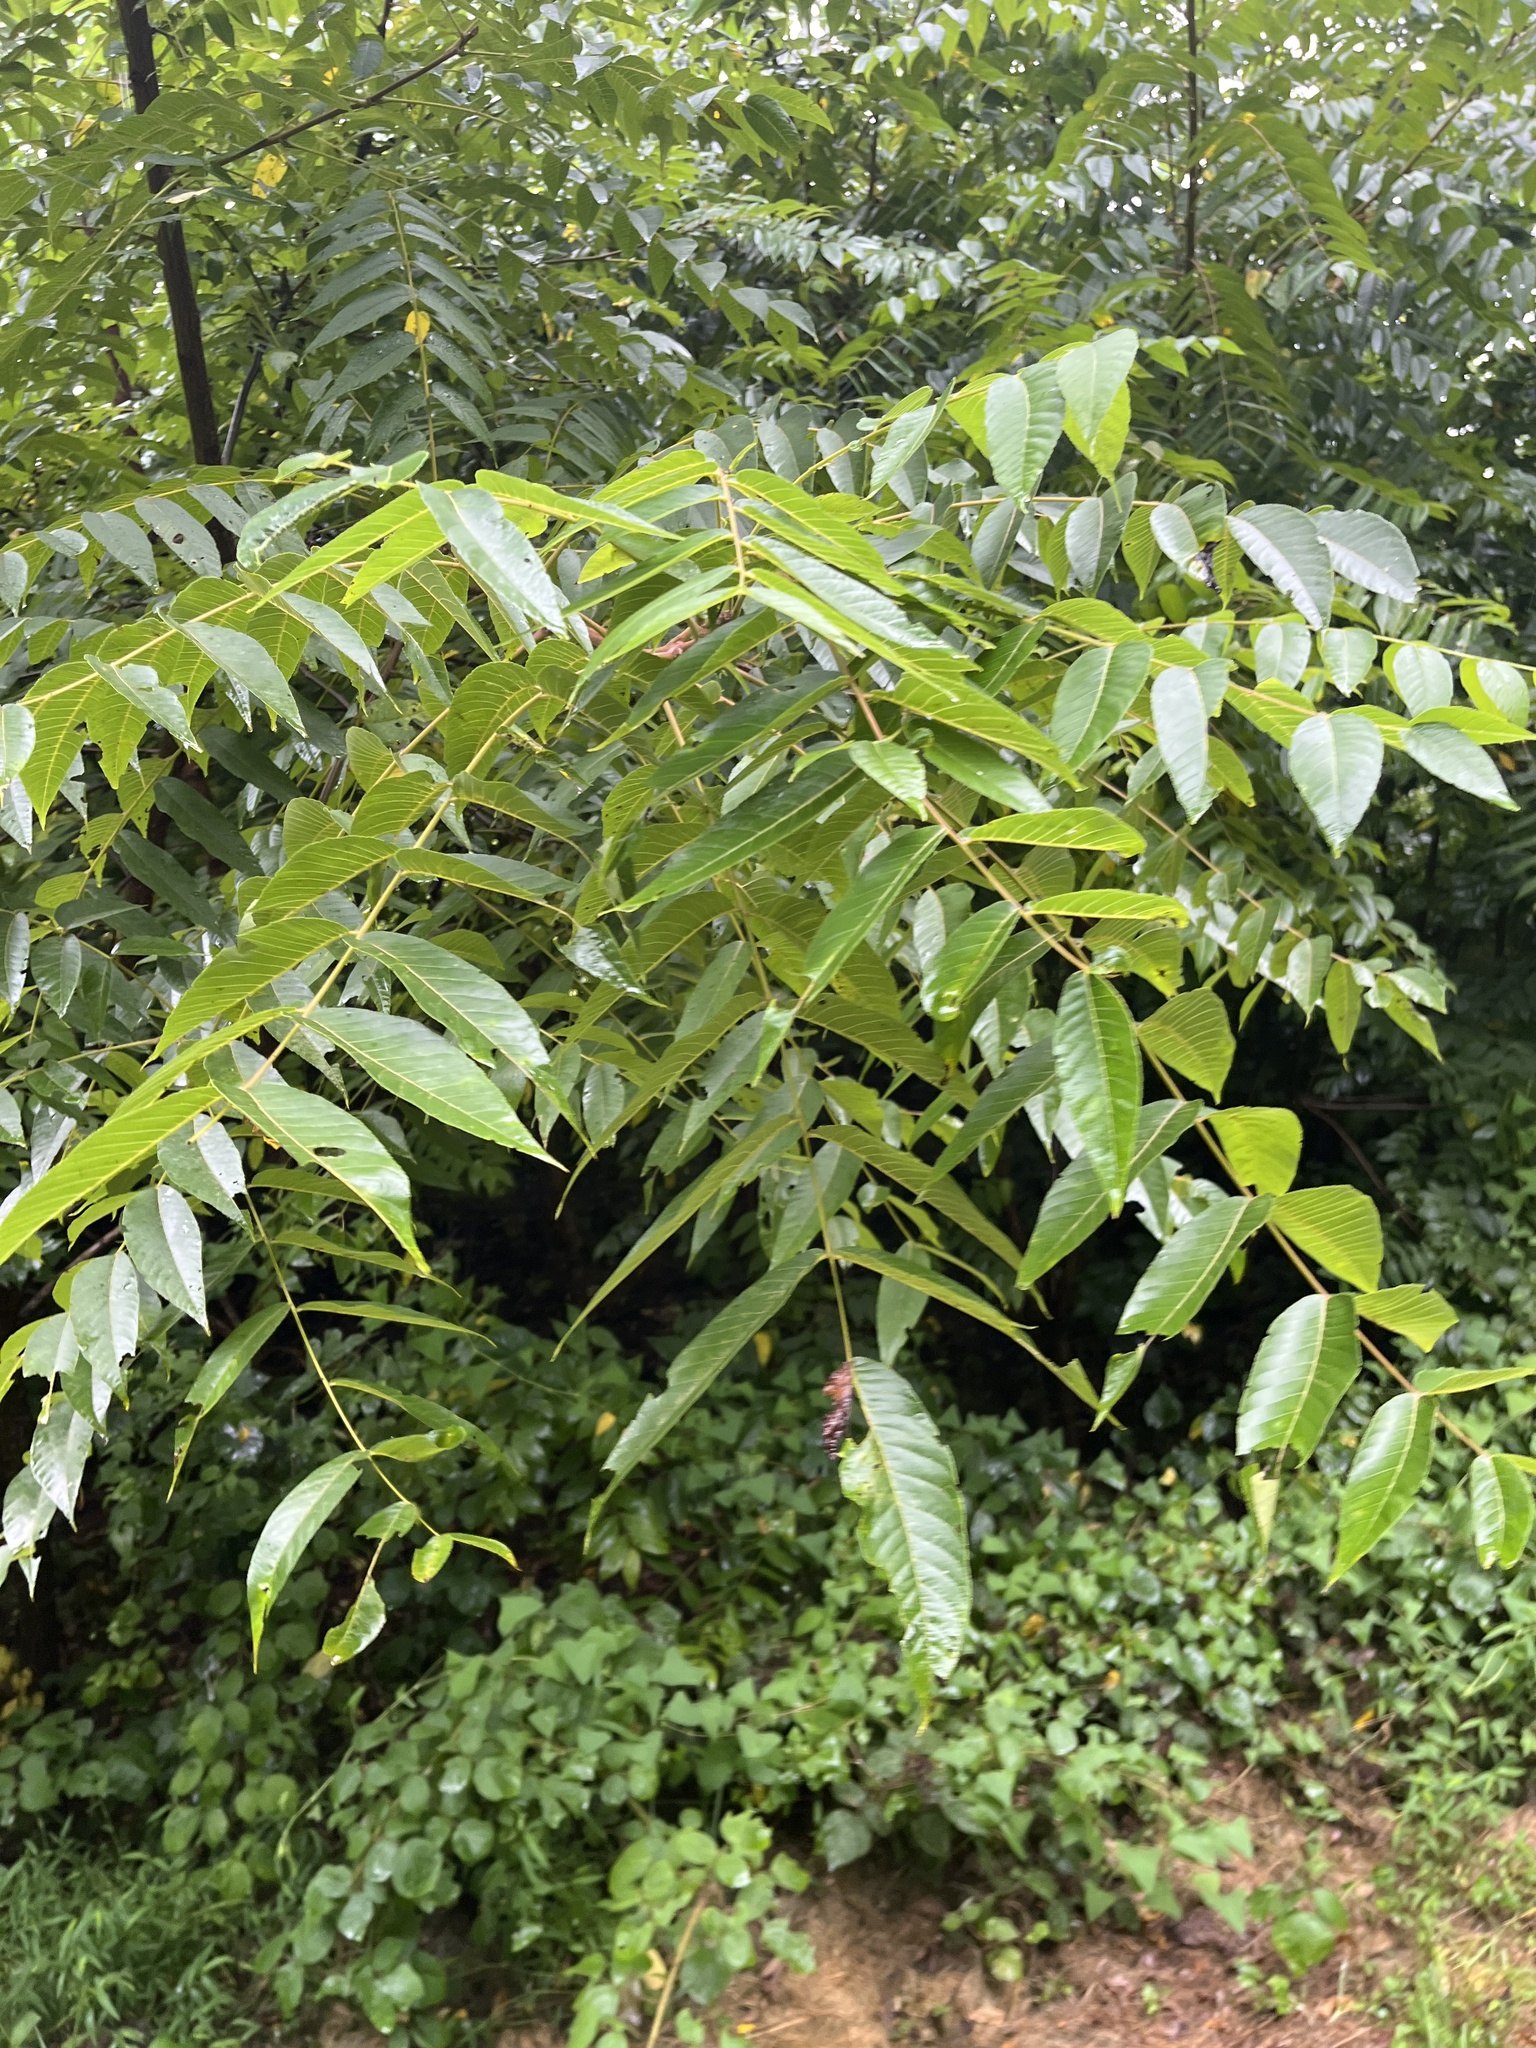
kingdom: Plantae
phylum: Tracheophyta
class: Magnoliopsida
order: Fagales
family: Juglandaceae
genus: Juglans
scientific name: Juglans nigra
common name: Black walnut
